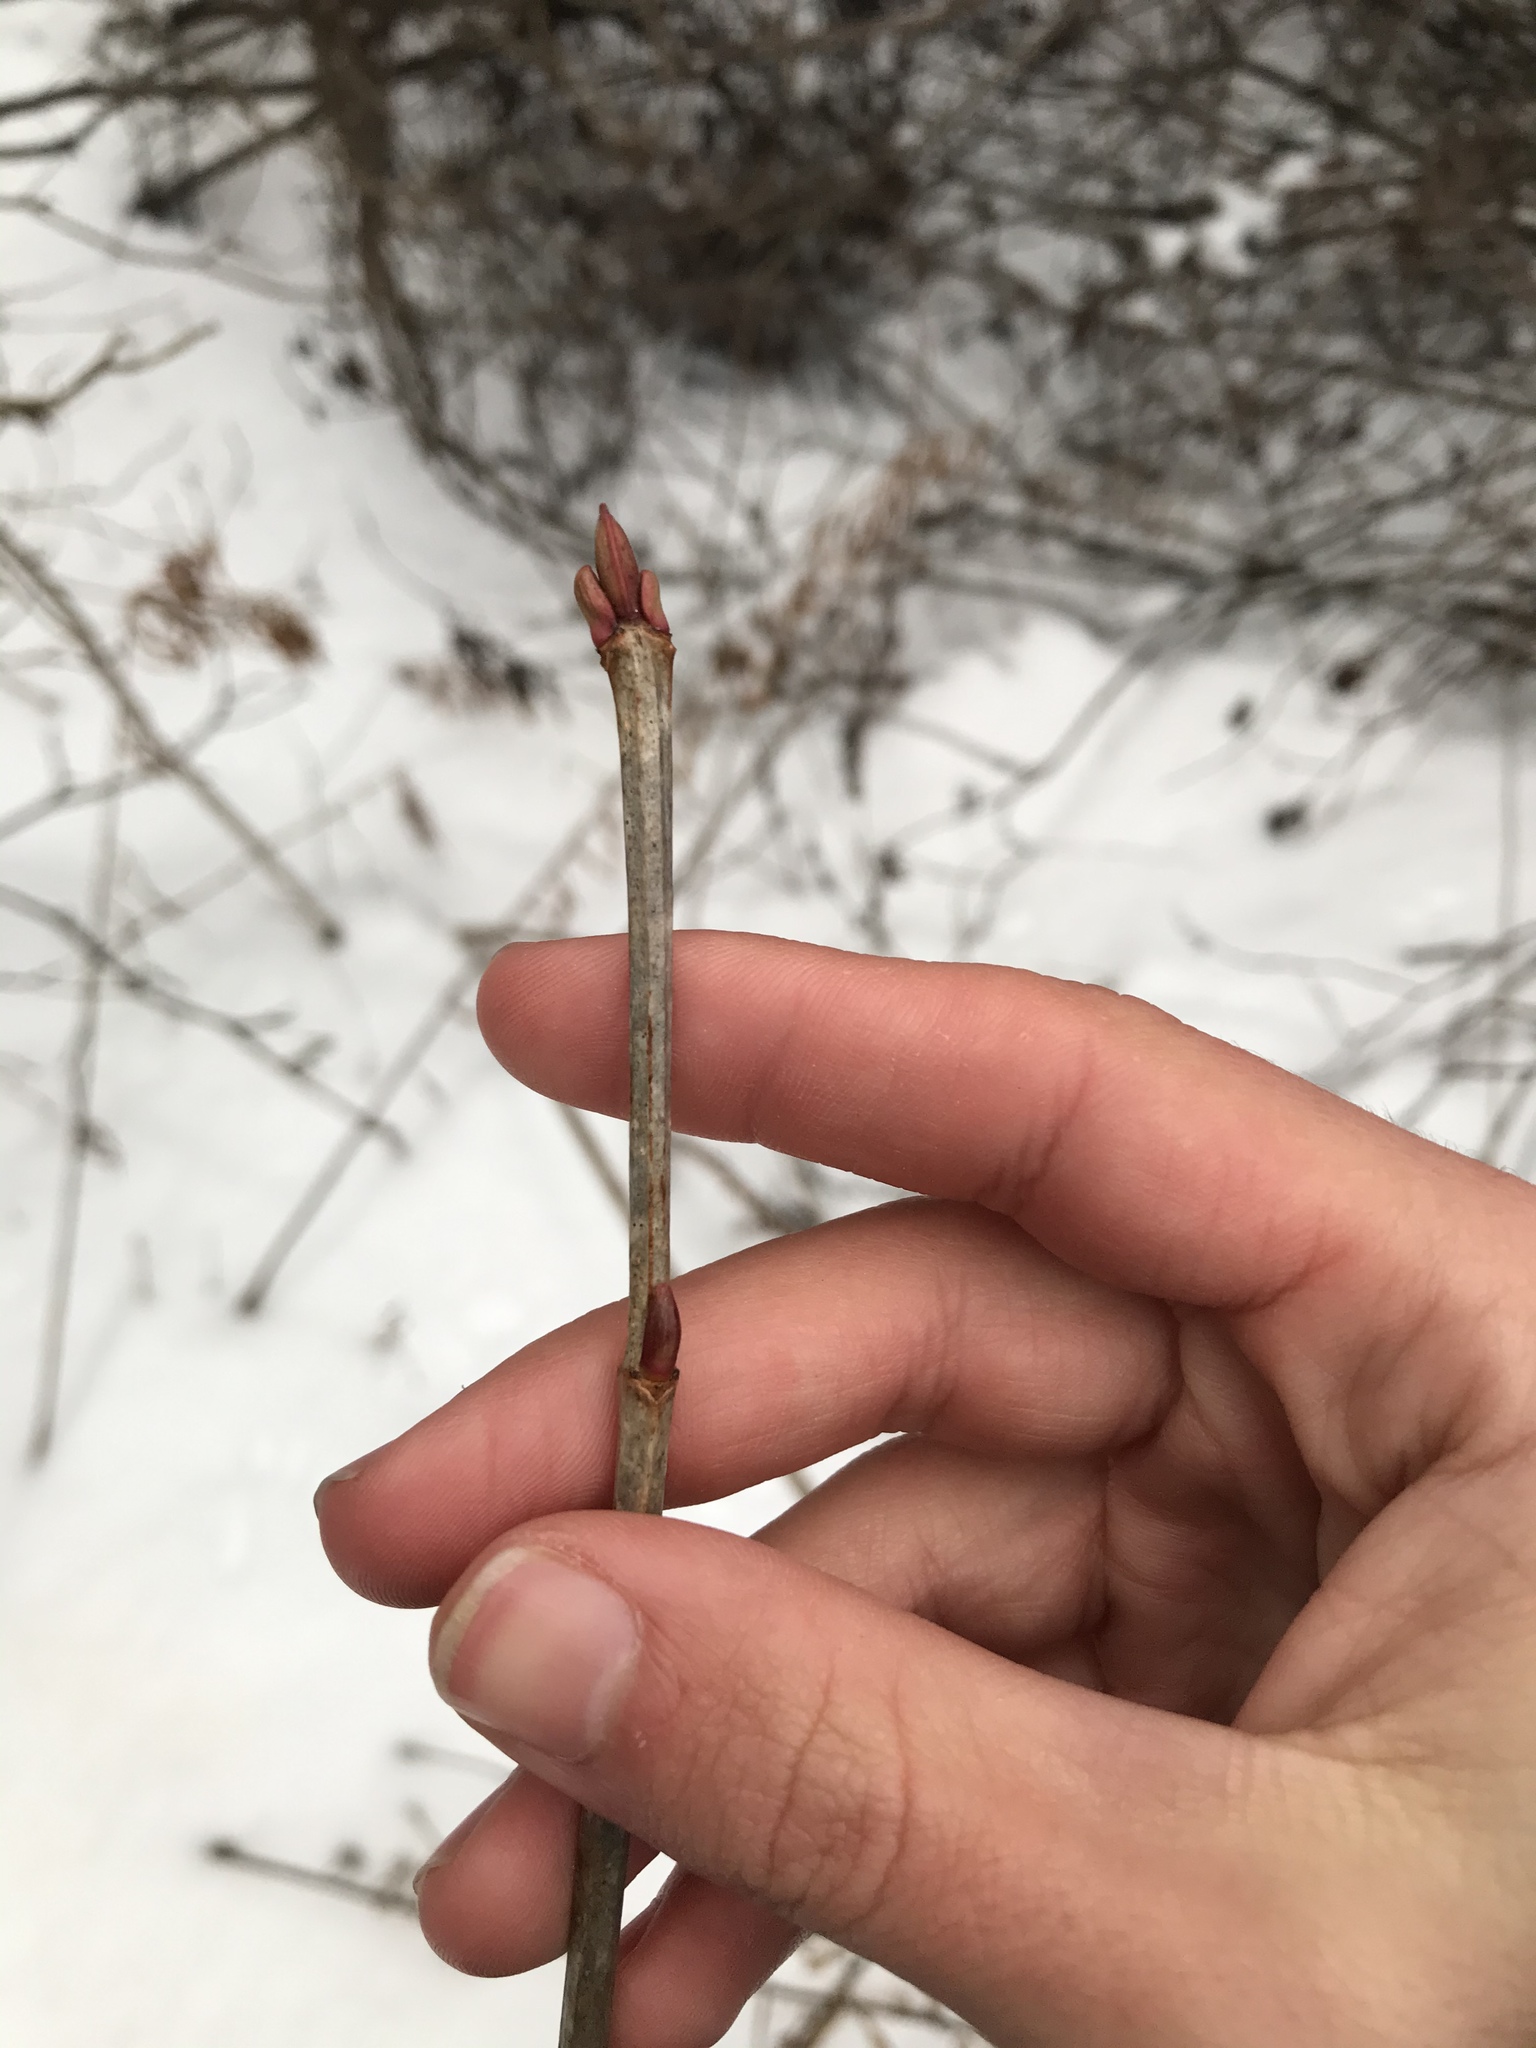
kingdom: Plantae
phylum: Tracheophyta
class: Magnoliopsida
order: Dipsacales
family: Viburnaceae
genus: Viburnum
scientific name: Viburnum opulus
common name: Guelder-rose
